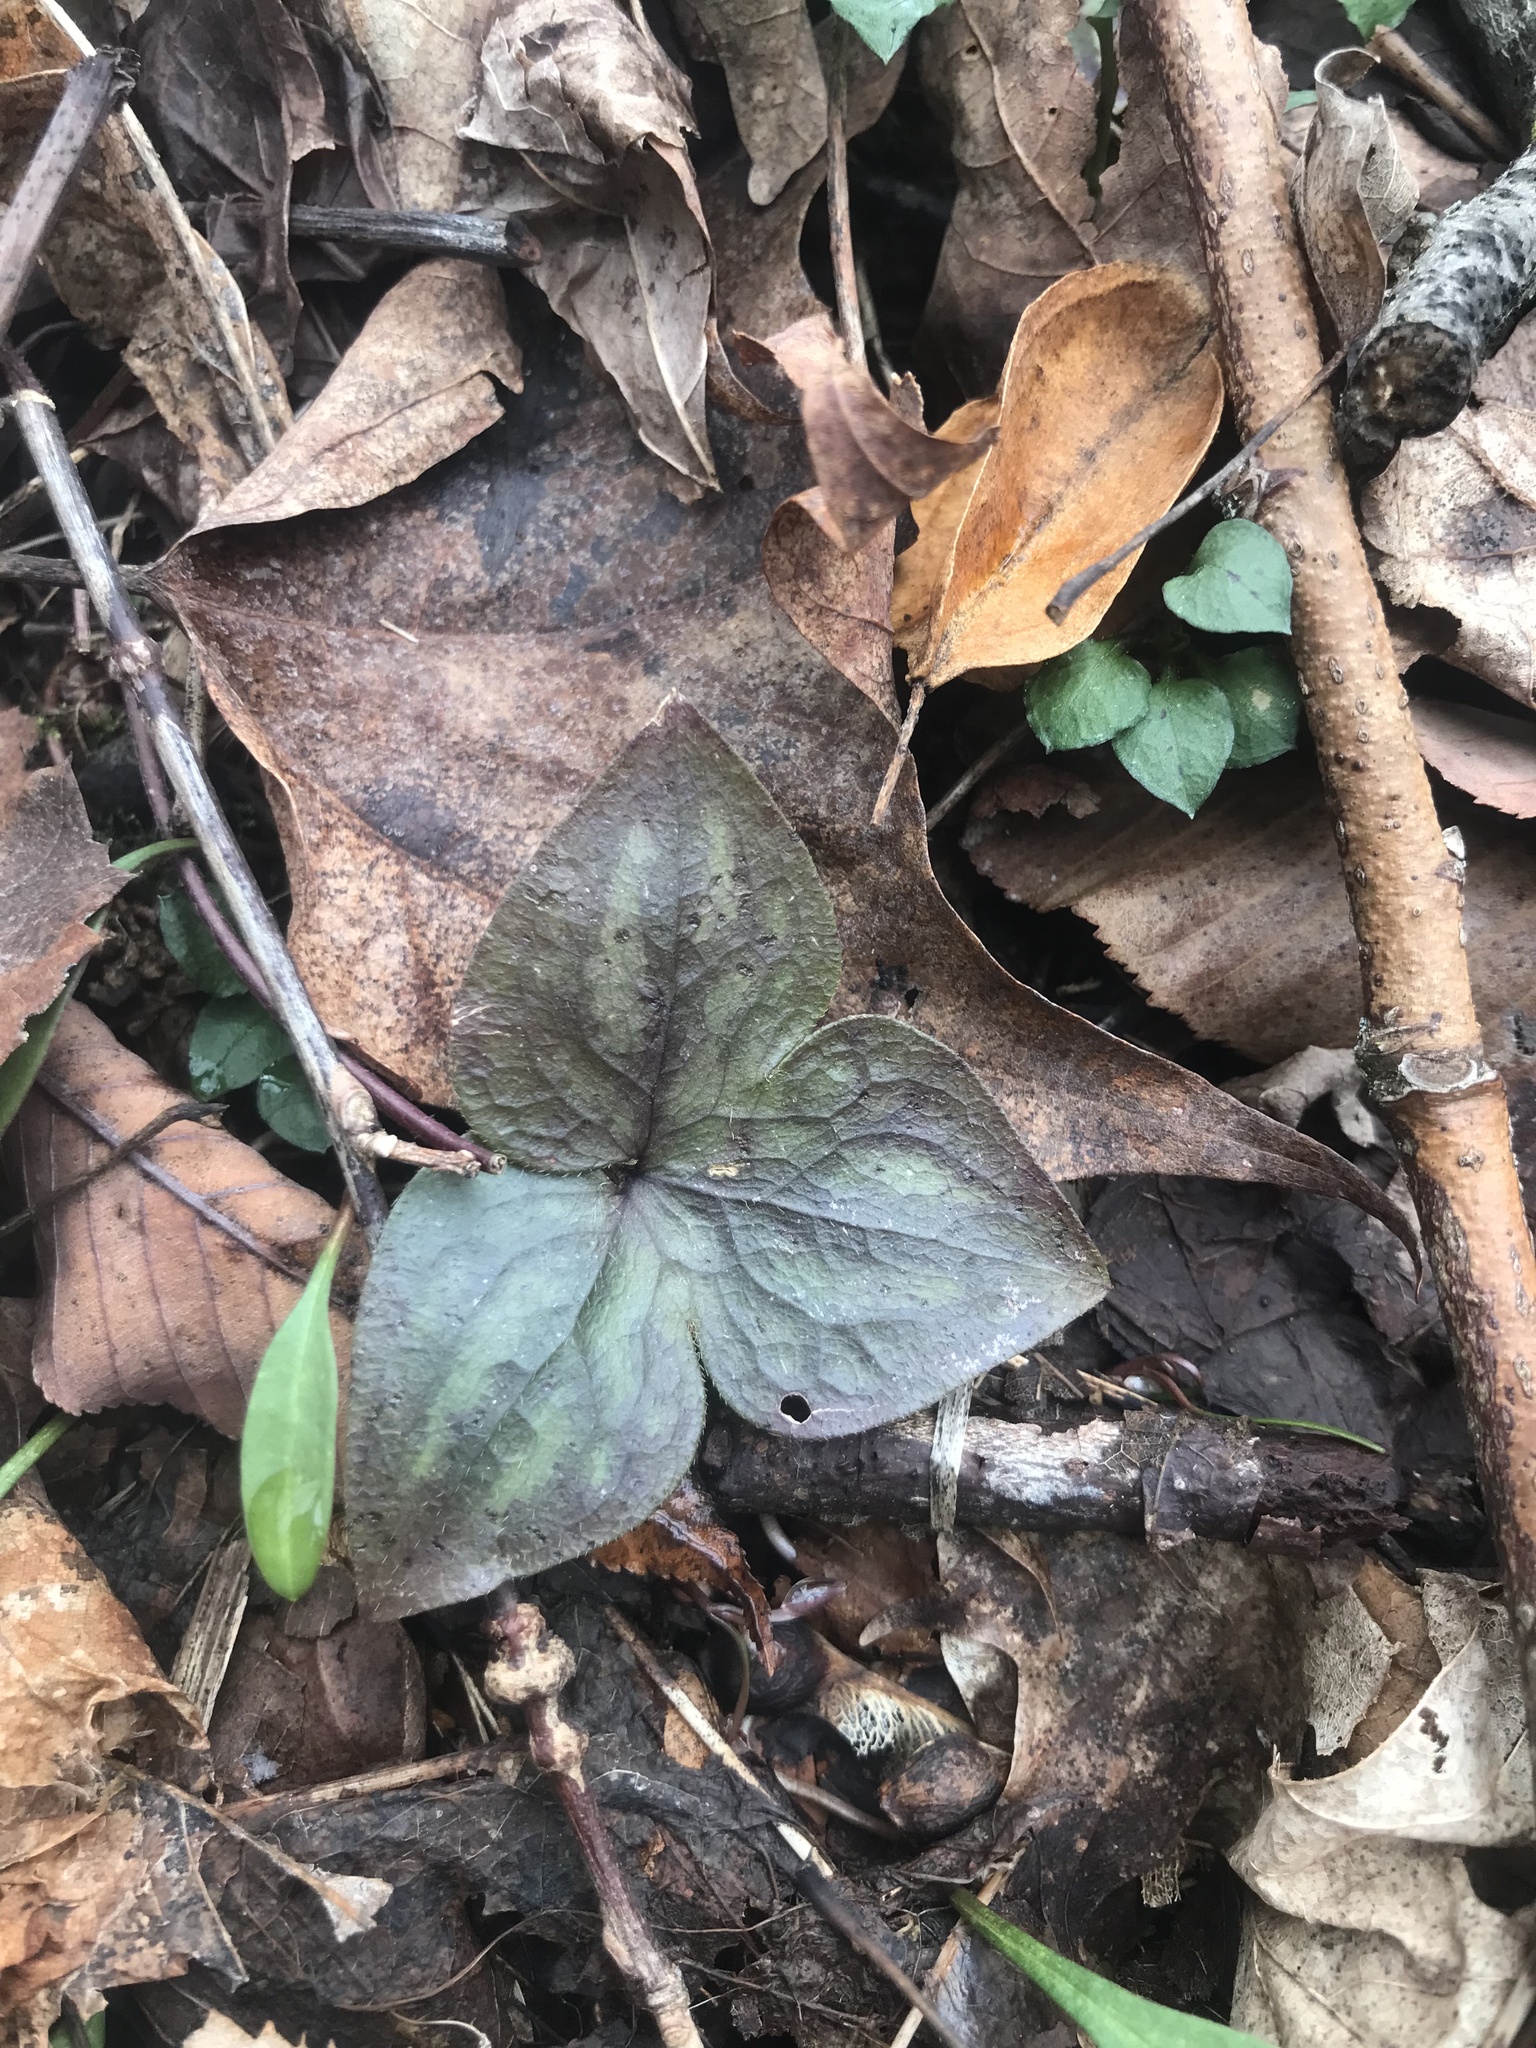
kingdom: Plantae
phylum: Tracheophyta
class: Magnoliopsida
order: Ranunculales
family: Ranunculaceae
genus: Hepatica
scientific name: Hepatica acutiloba
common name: Sharp-lobed hepatica
